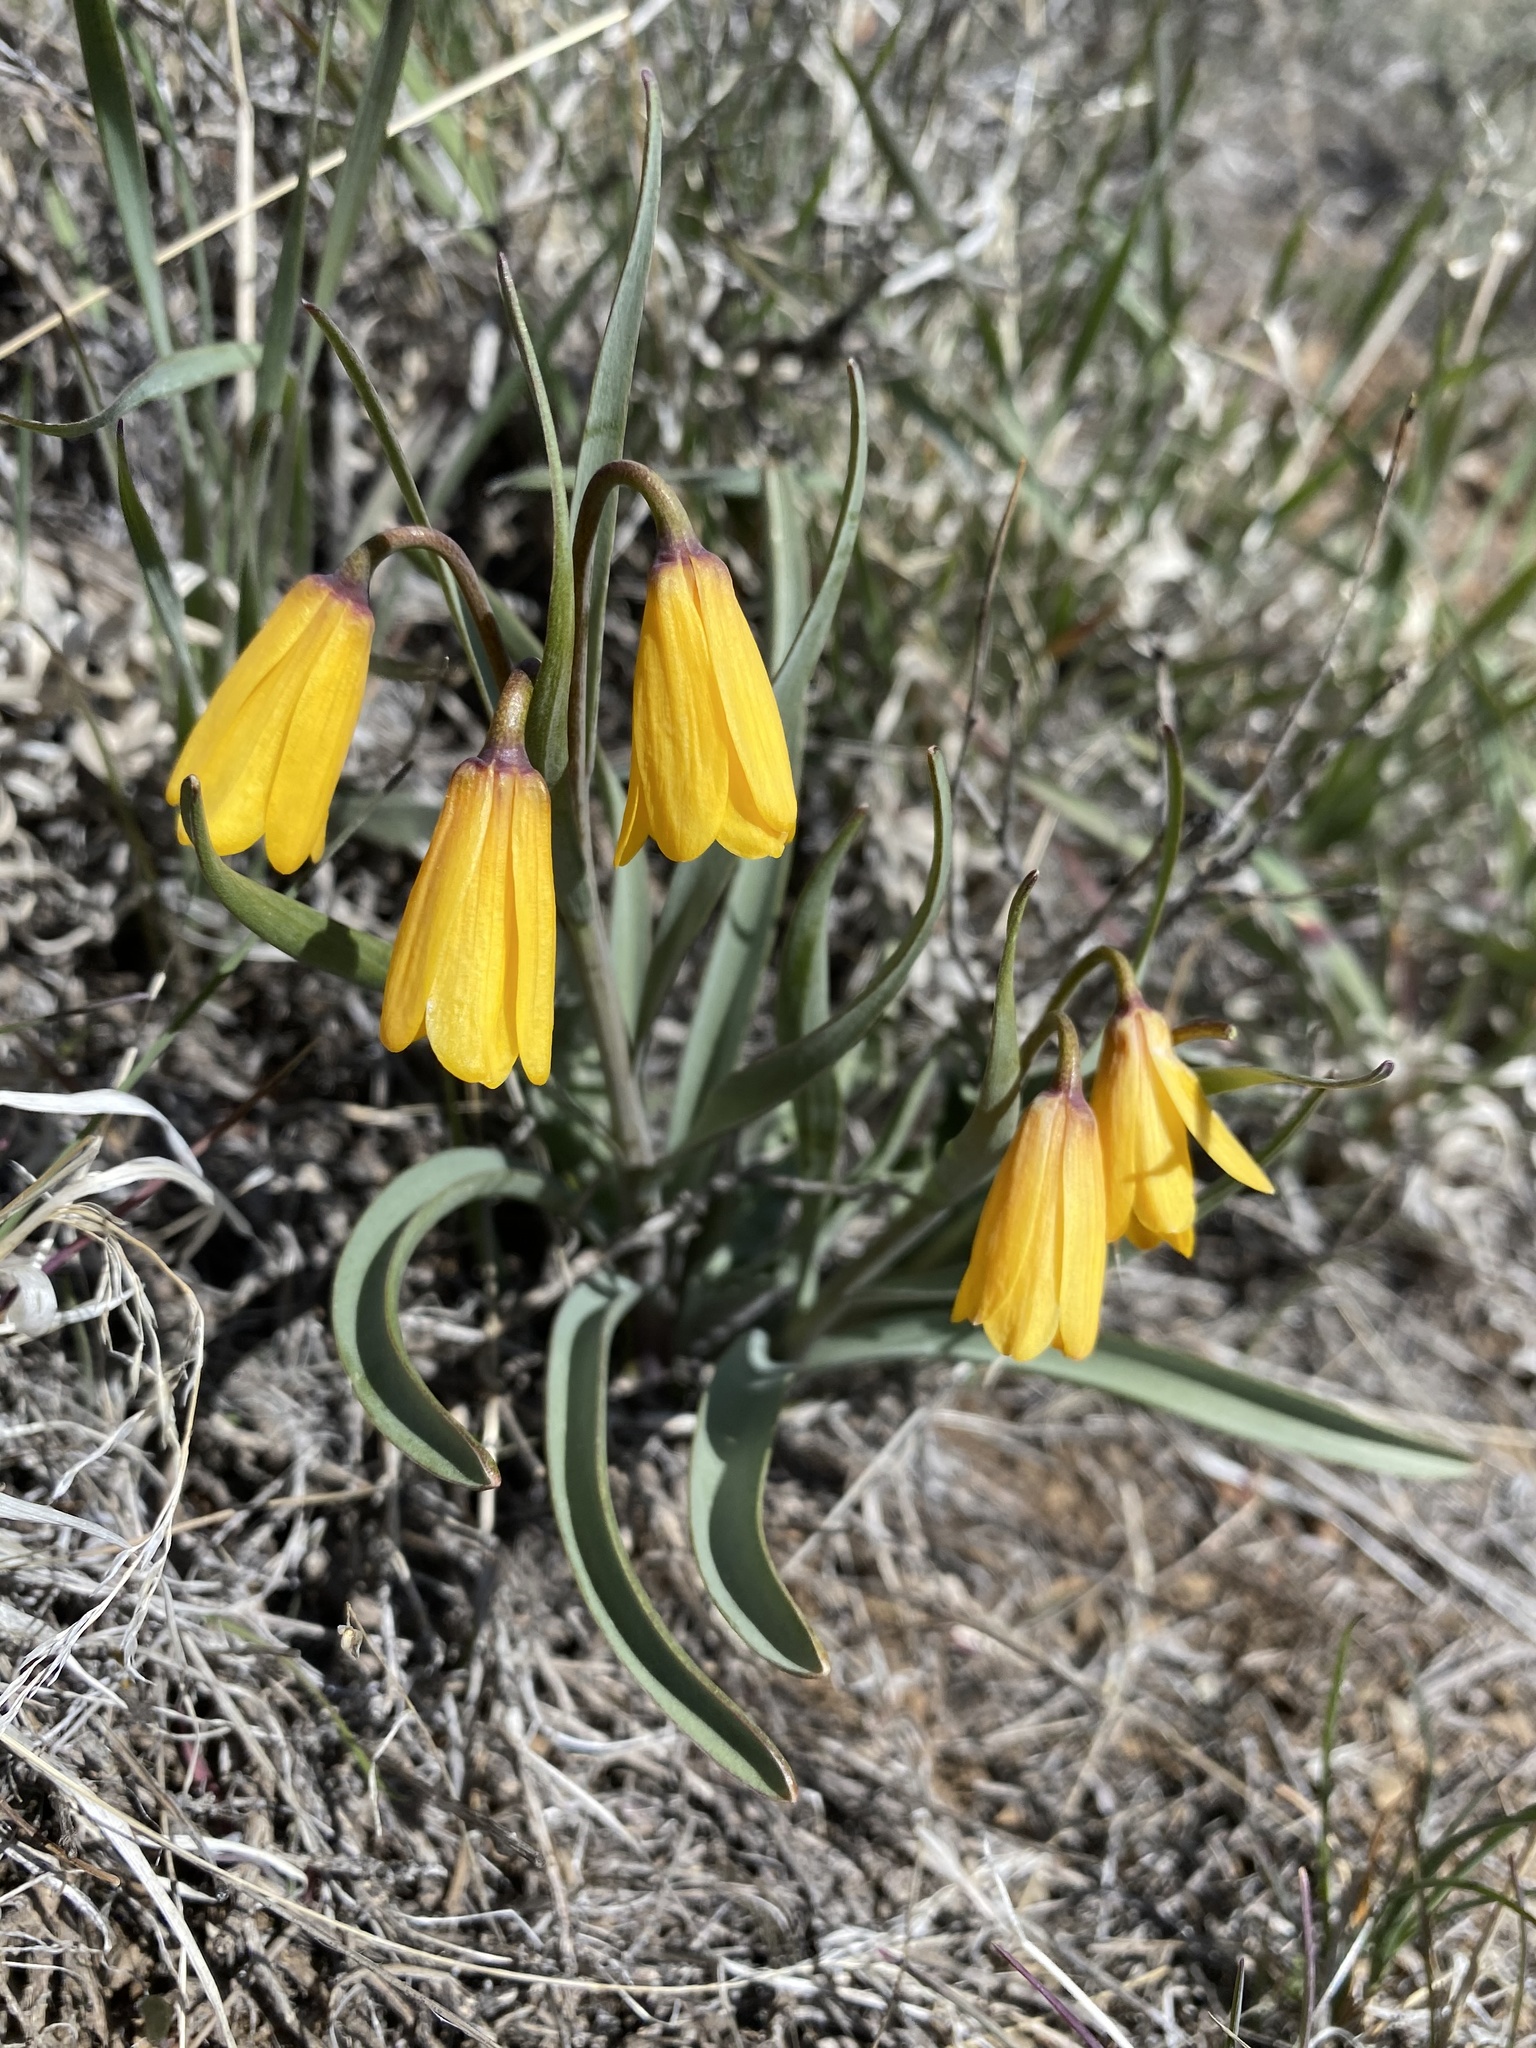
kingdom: Plantae
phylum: Tracheophyta
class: Liliopsida
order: Liliales
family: Liliaceae
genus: Fritillaria
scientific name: Fritillaria pudica
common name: Yellow fritillary
